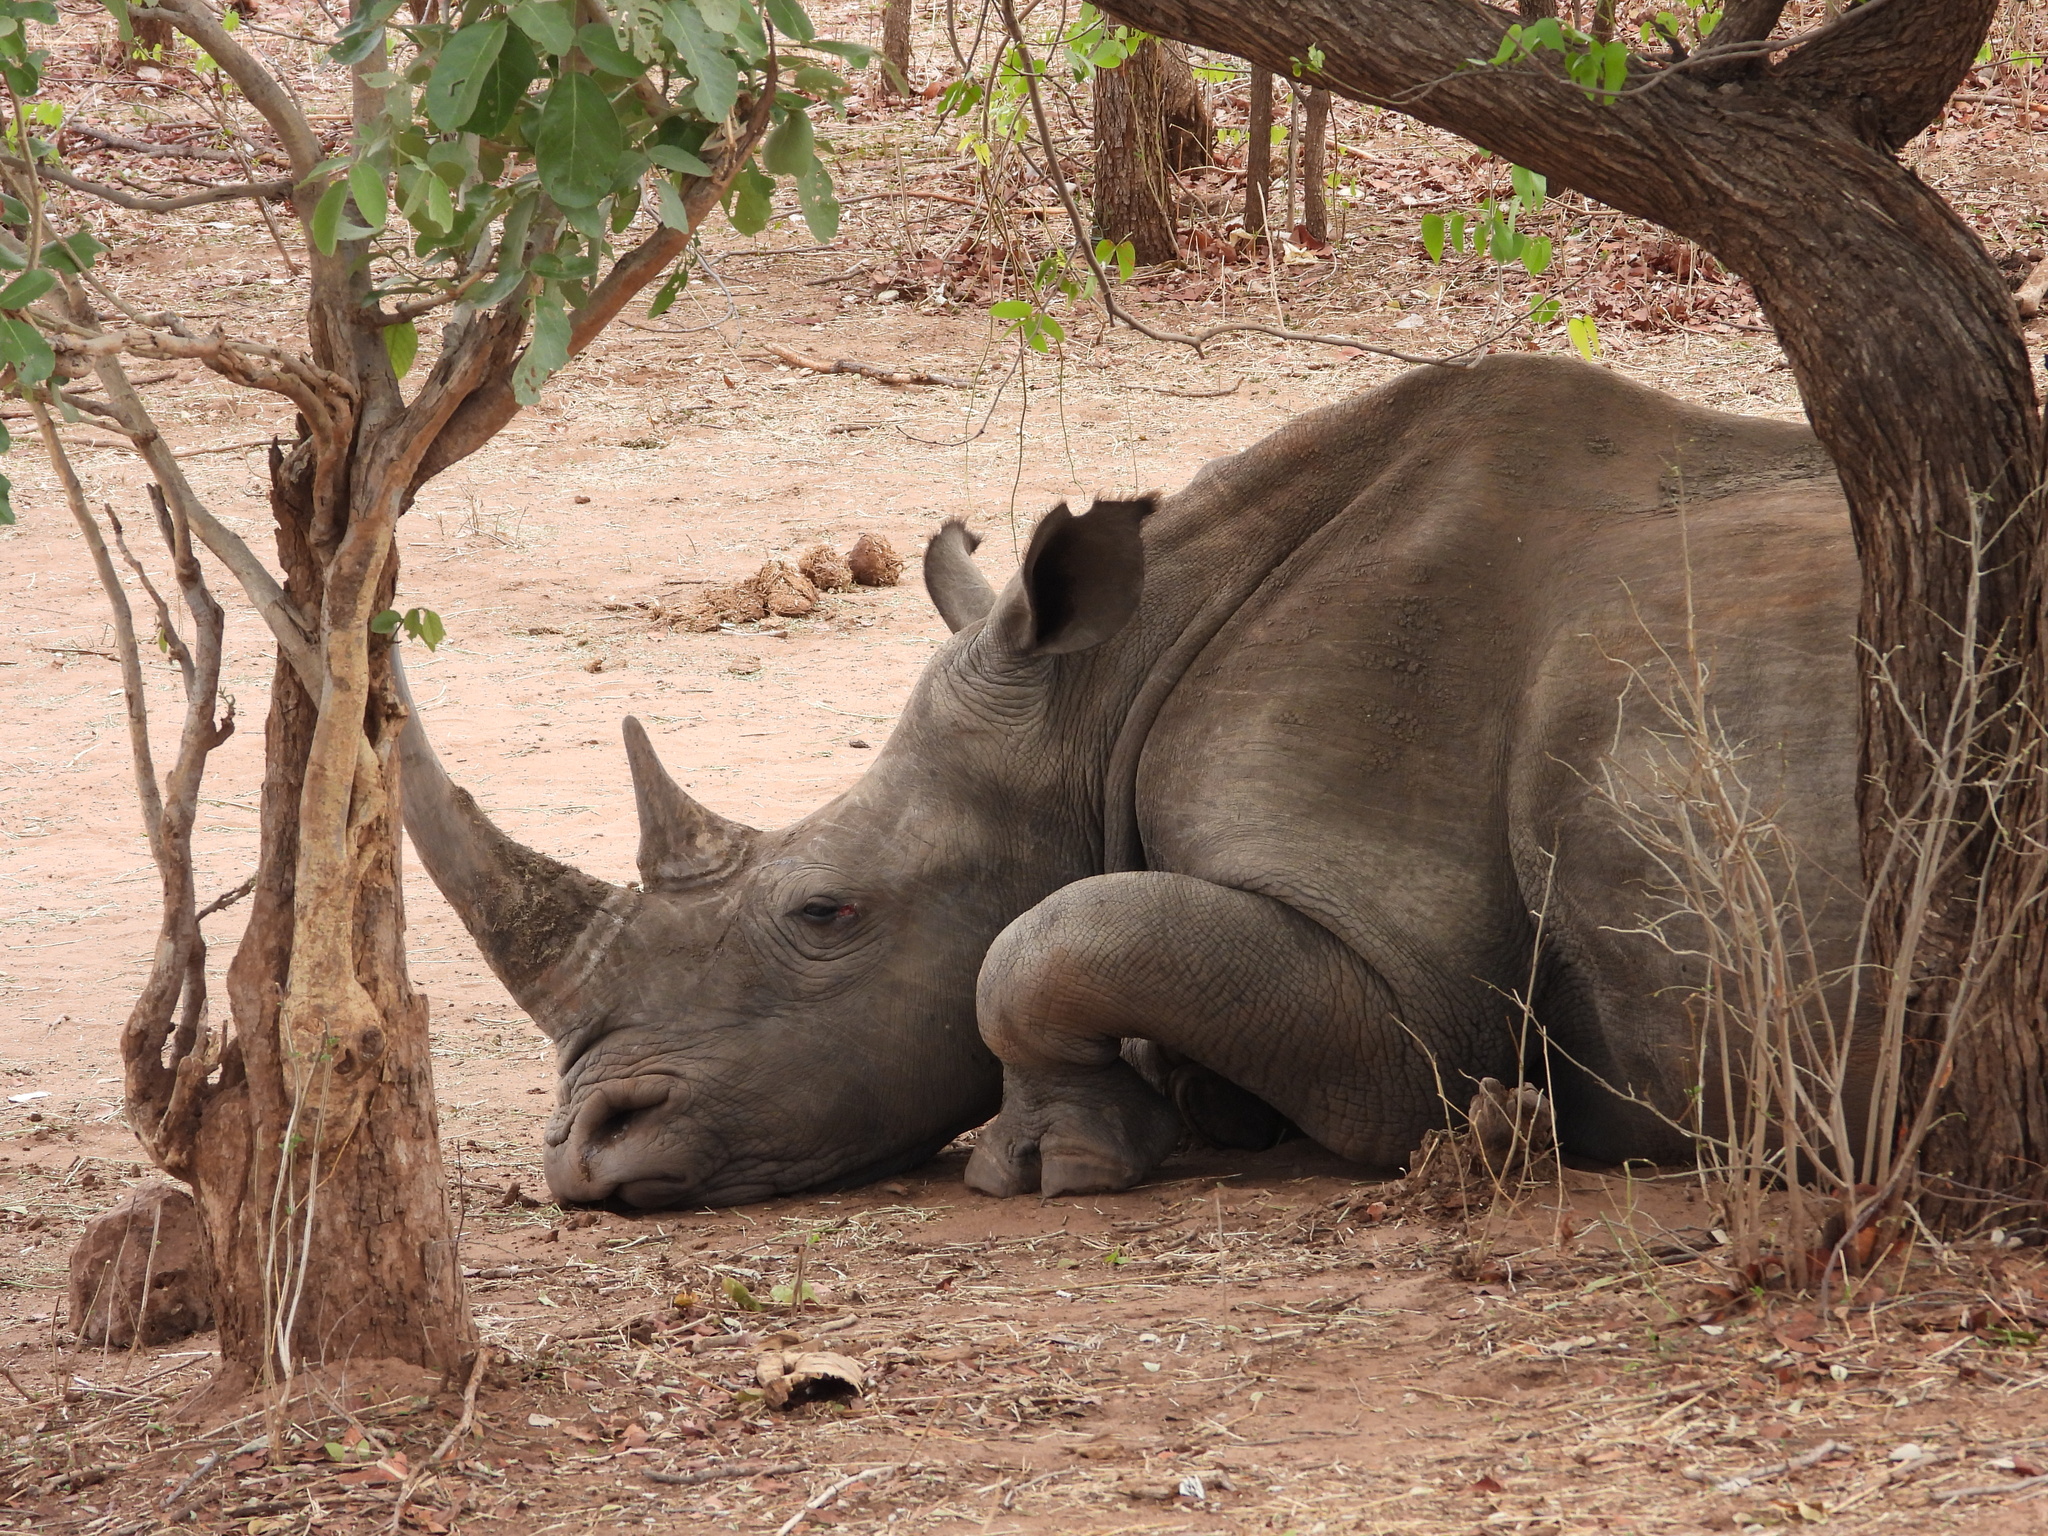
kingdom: Animalia
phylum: Chordata
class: Mammalia
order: Perissodactyla
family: Rhinocerotidae
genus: Ceratotherium
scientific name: Ceratotherium simum
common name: White rhinoceros
